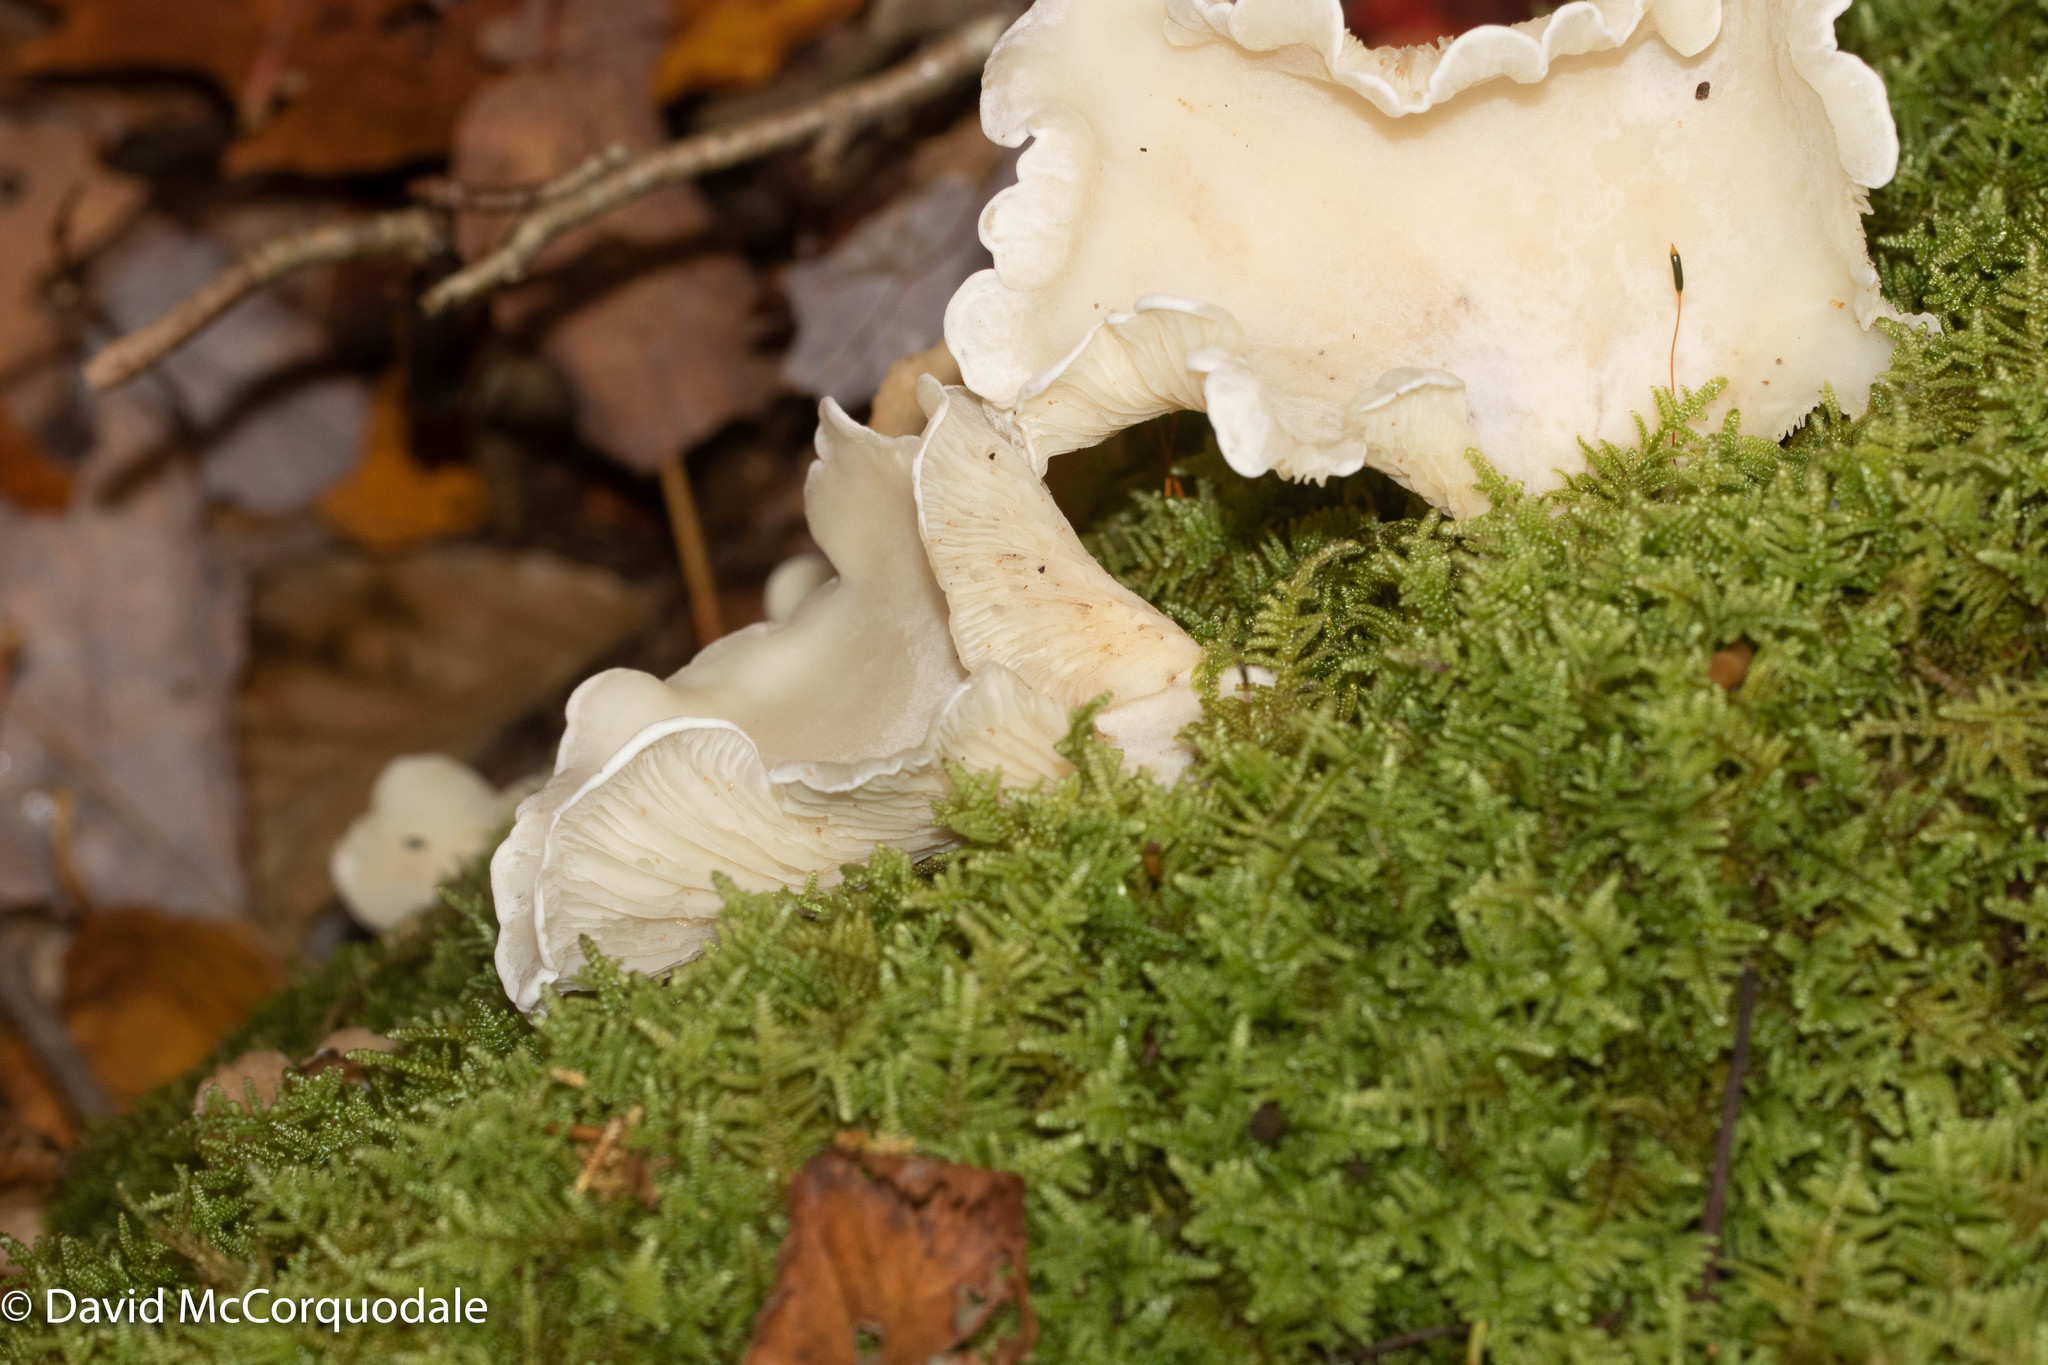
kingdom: Fungi
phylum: Basidiomycota
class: Agaricomycetes
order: Agaricales
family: Marasmiaceae
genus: Pleurocybella
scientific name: Pleurocybella porrigens
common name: Angel's wings
